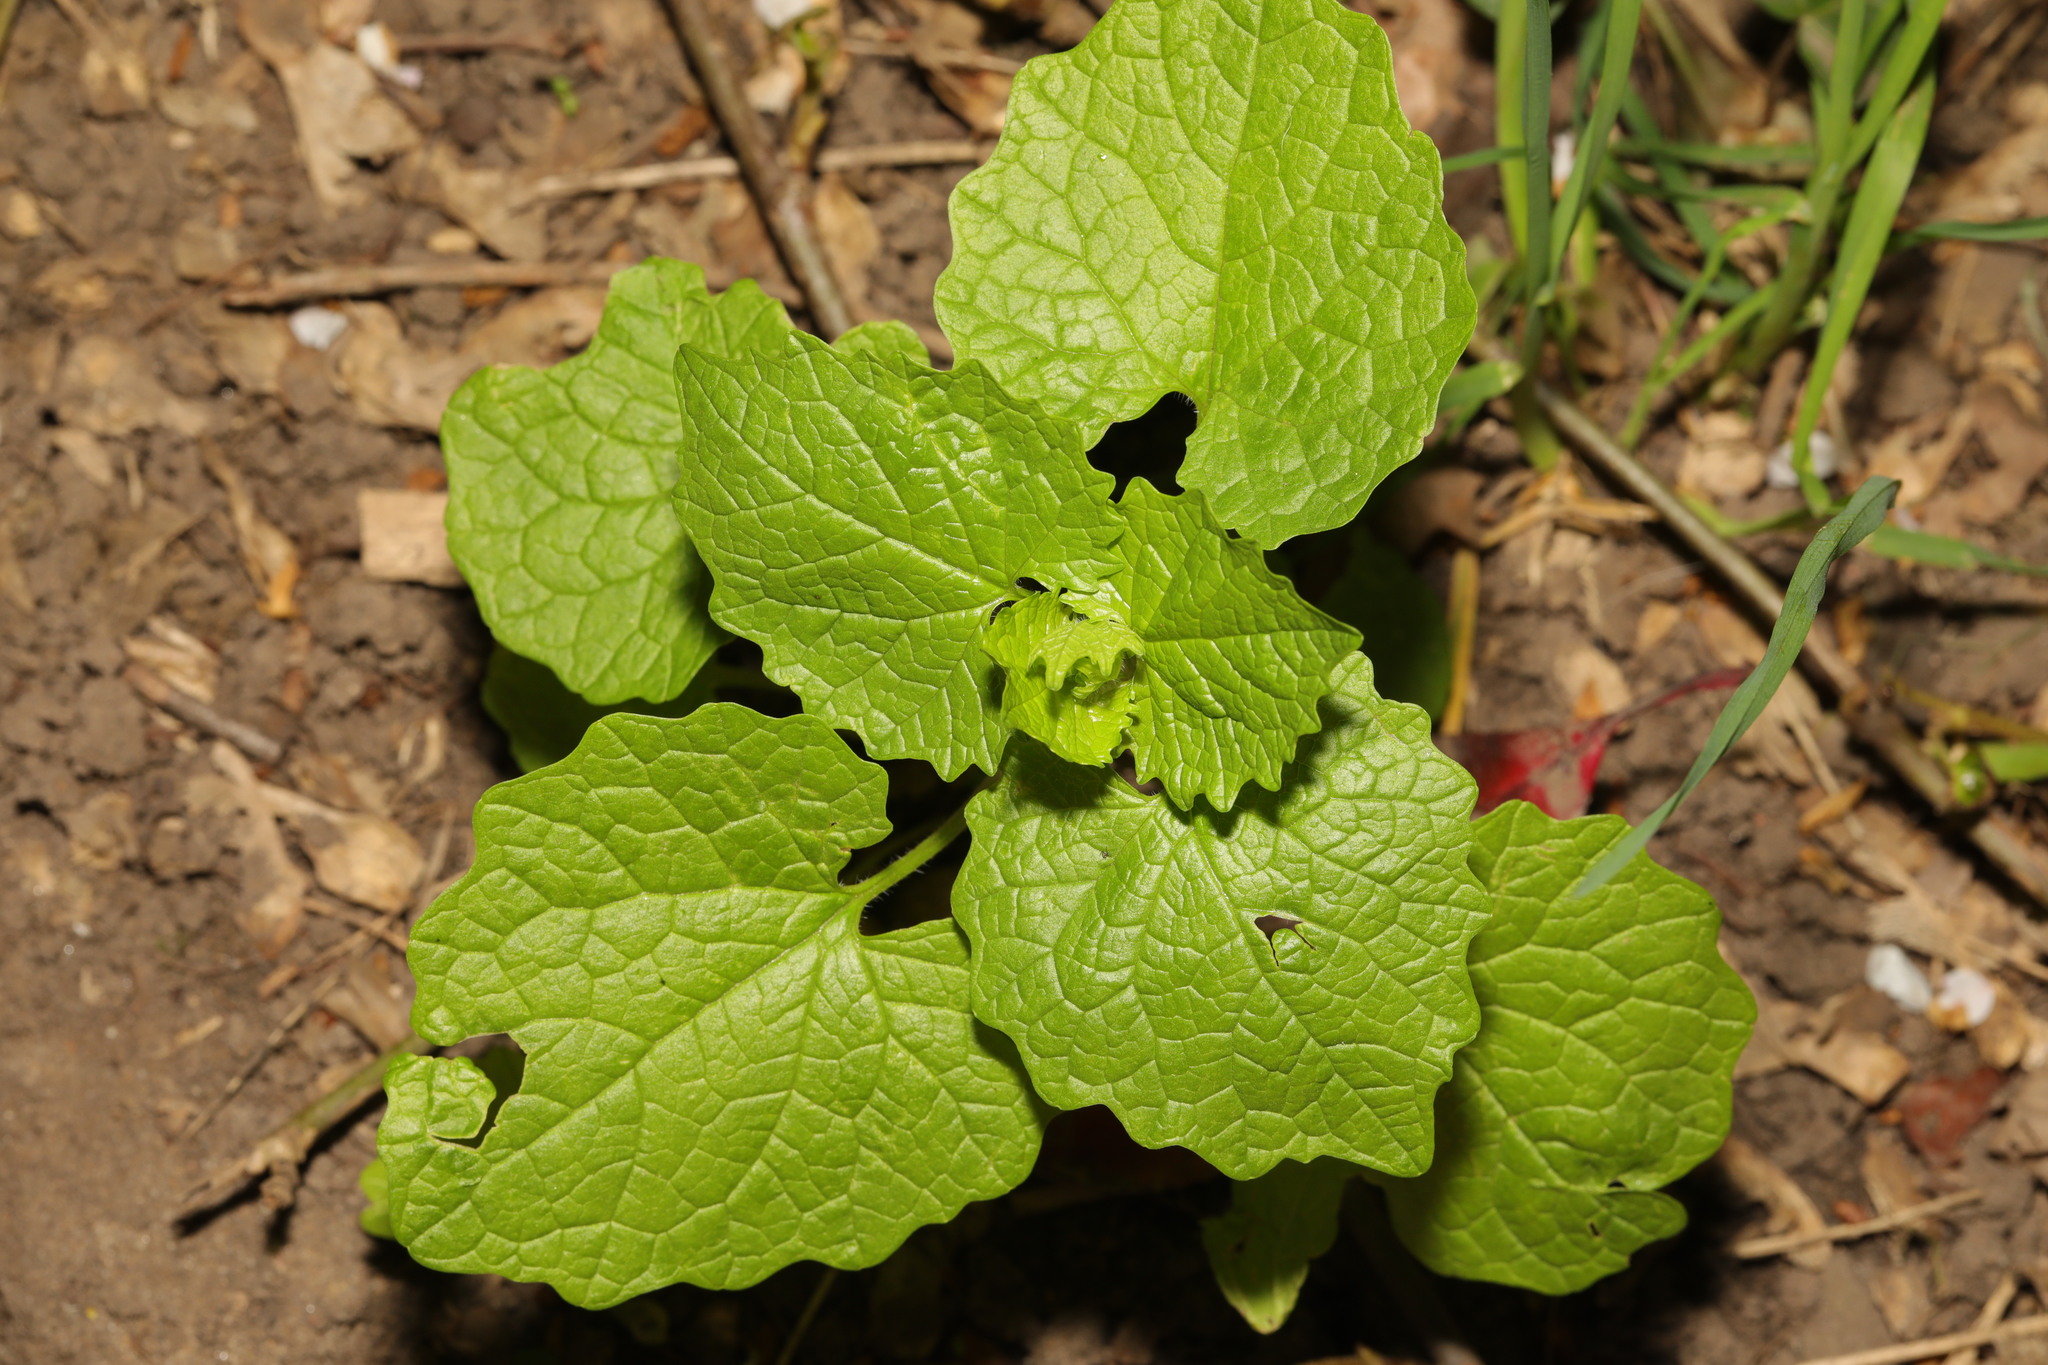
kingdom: Plantae
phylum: Tracheophyta
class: Magnoliopsida
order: Brassicales
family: Brassicaceae
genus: Alliaria
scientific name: Alliaria petiolata
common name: Garlic mustard
